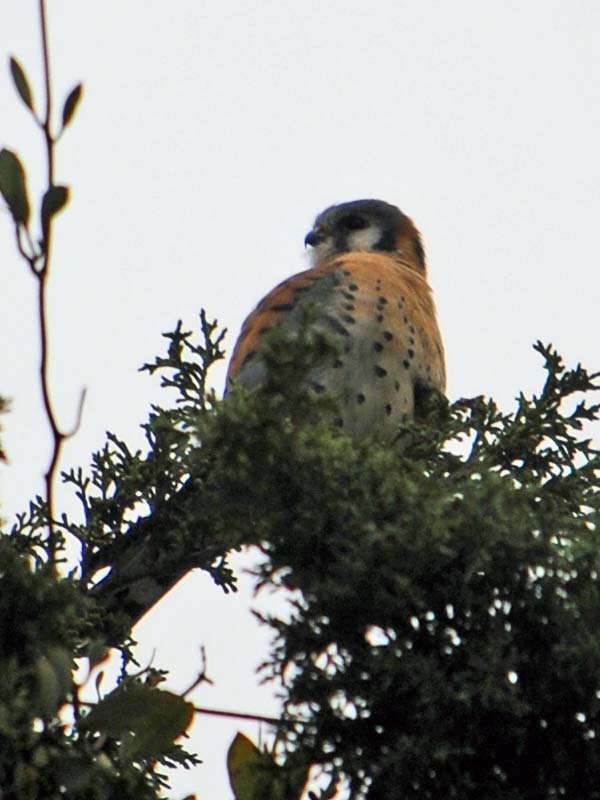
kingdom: Animalia
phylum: Chordata
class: Aves
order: Falconiformes
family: Falconidae
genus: Falco
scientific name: Falco sparverius
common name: American kestrel
